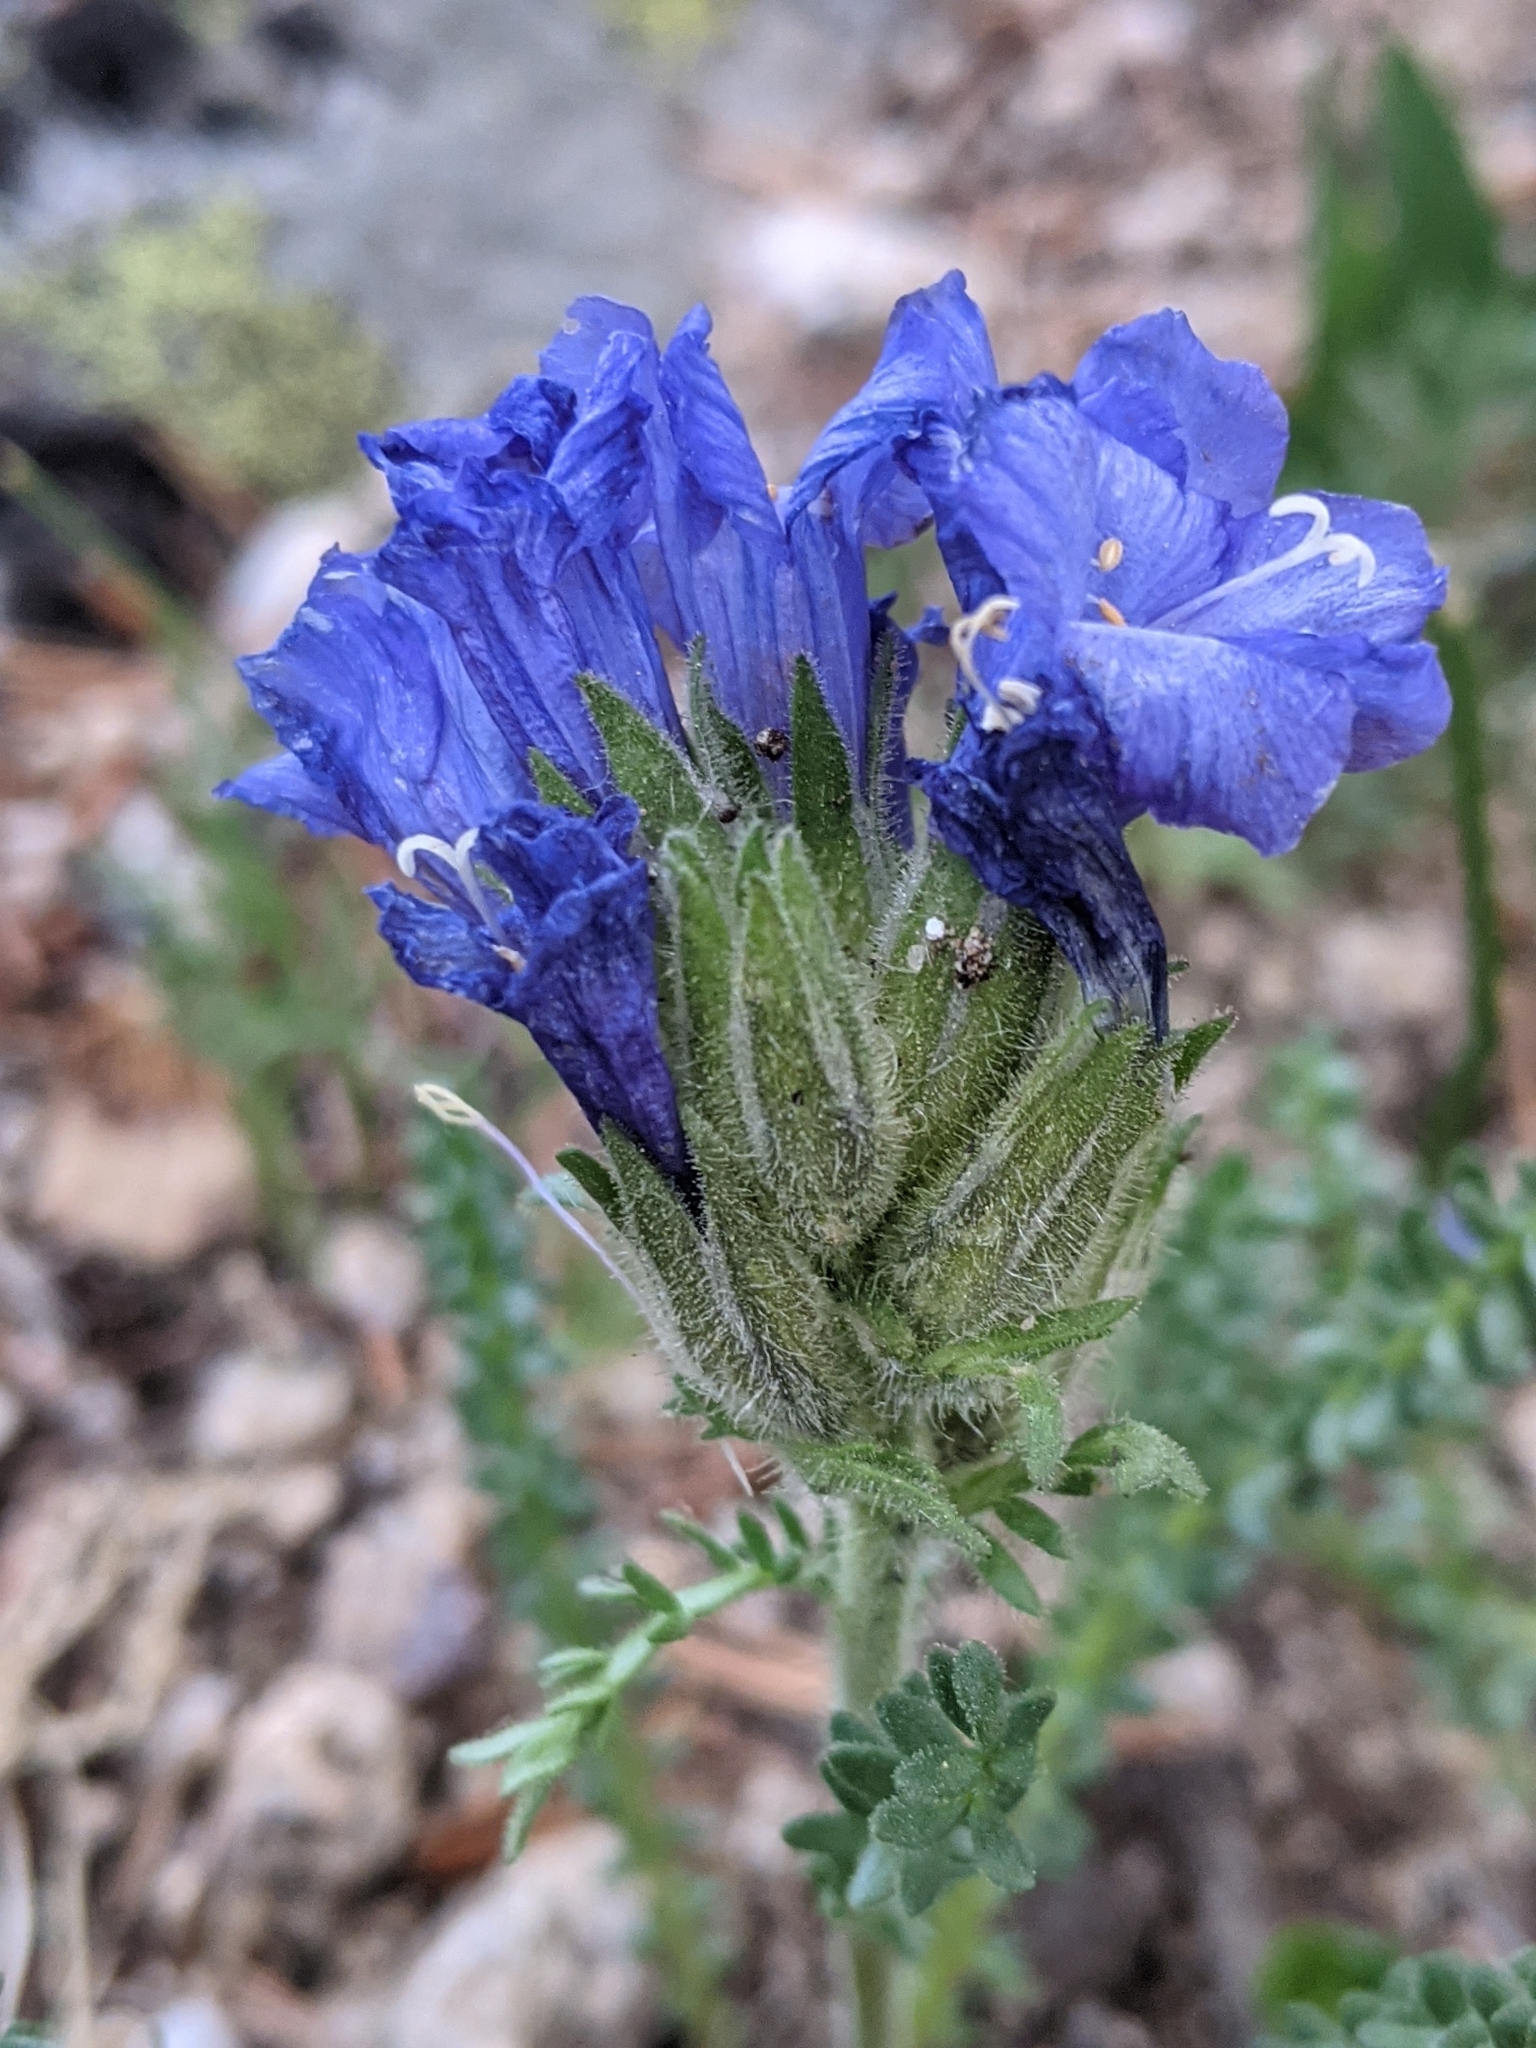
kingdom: Plantae
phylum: Tracheophyta
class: Magnoliopsida
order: Ericales
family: Polemoniaceae
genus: Polemonium
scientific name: Polemonium viscosum
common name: Skunk jacob's-ladder
